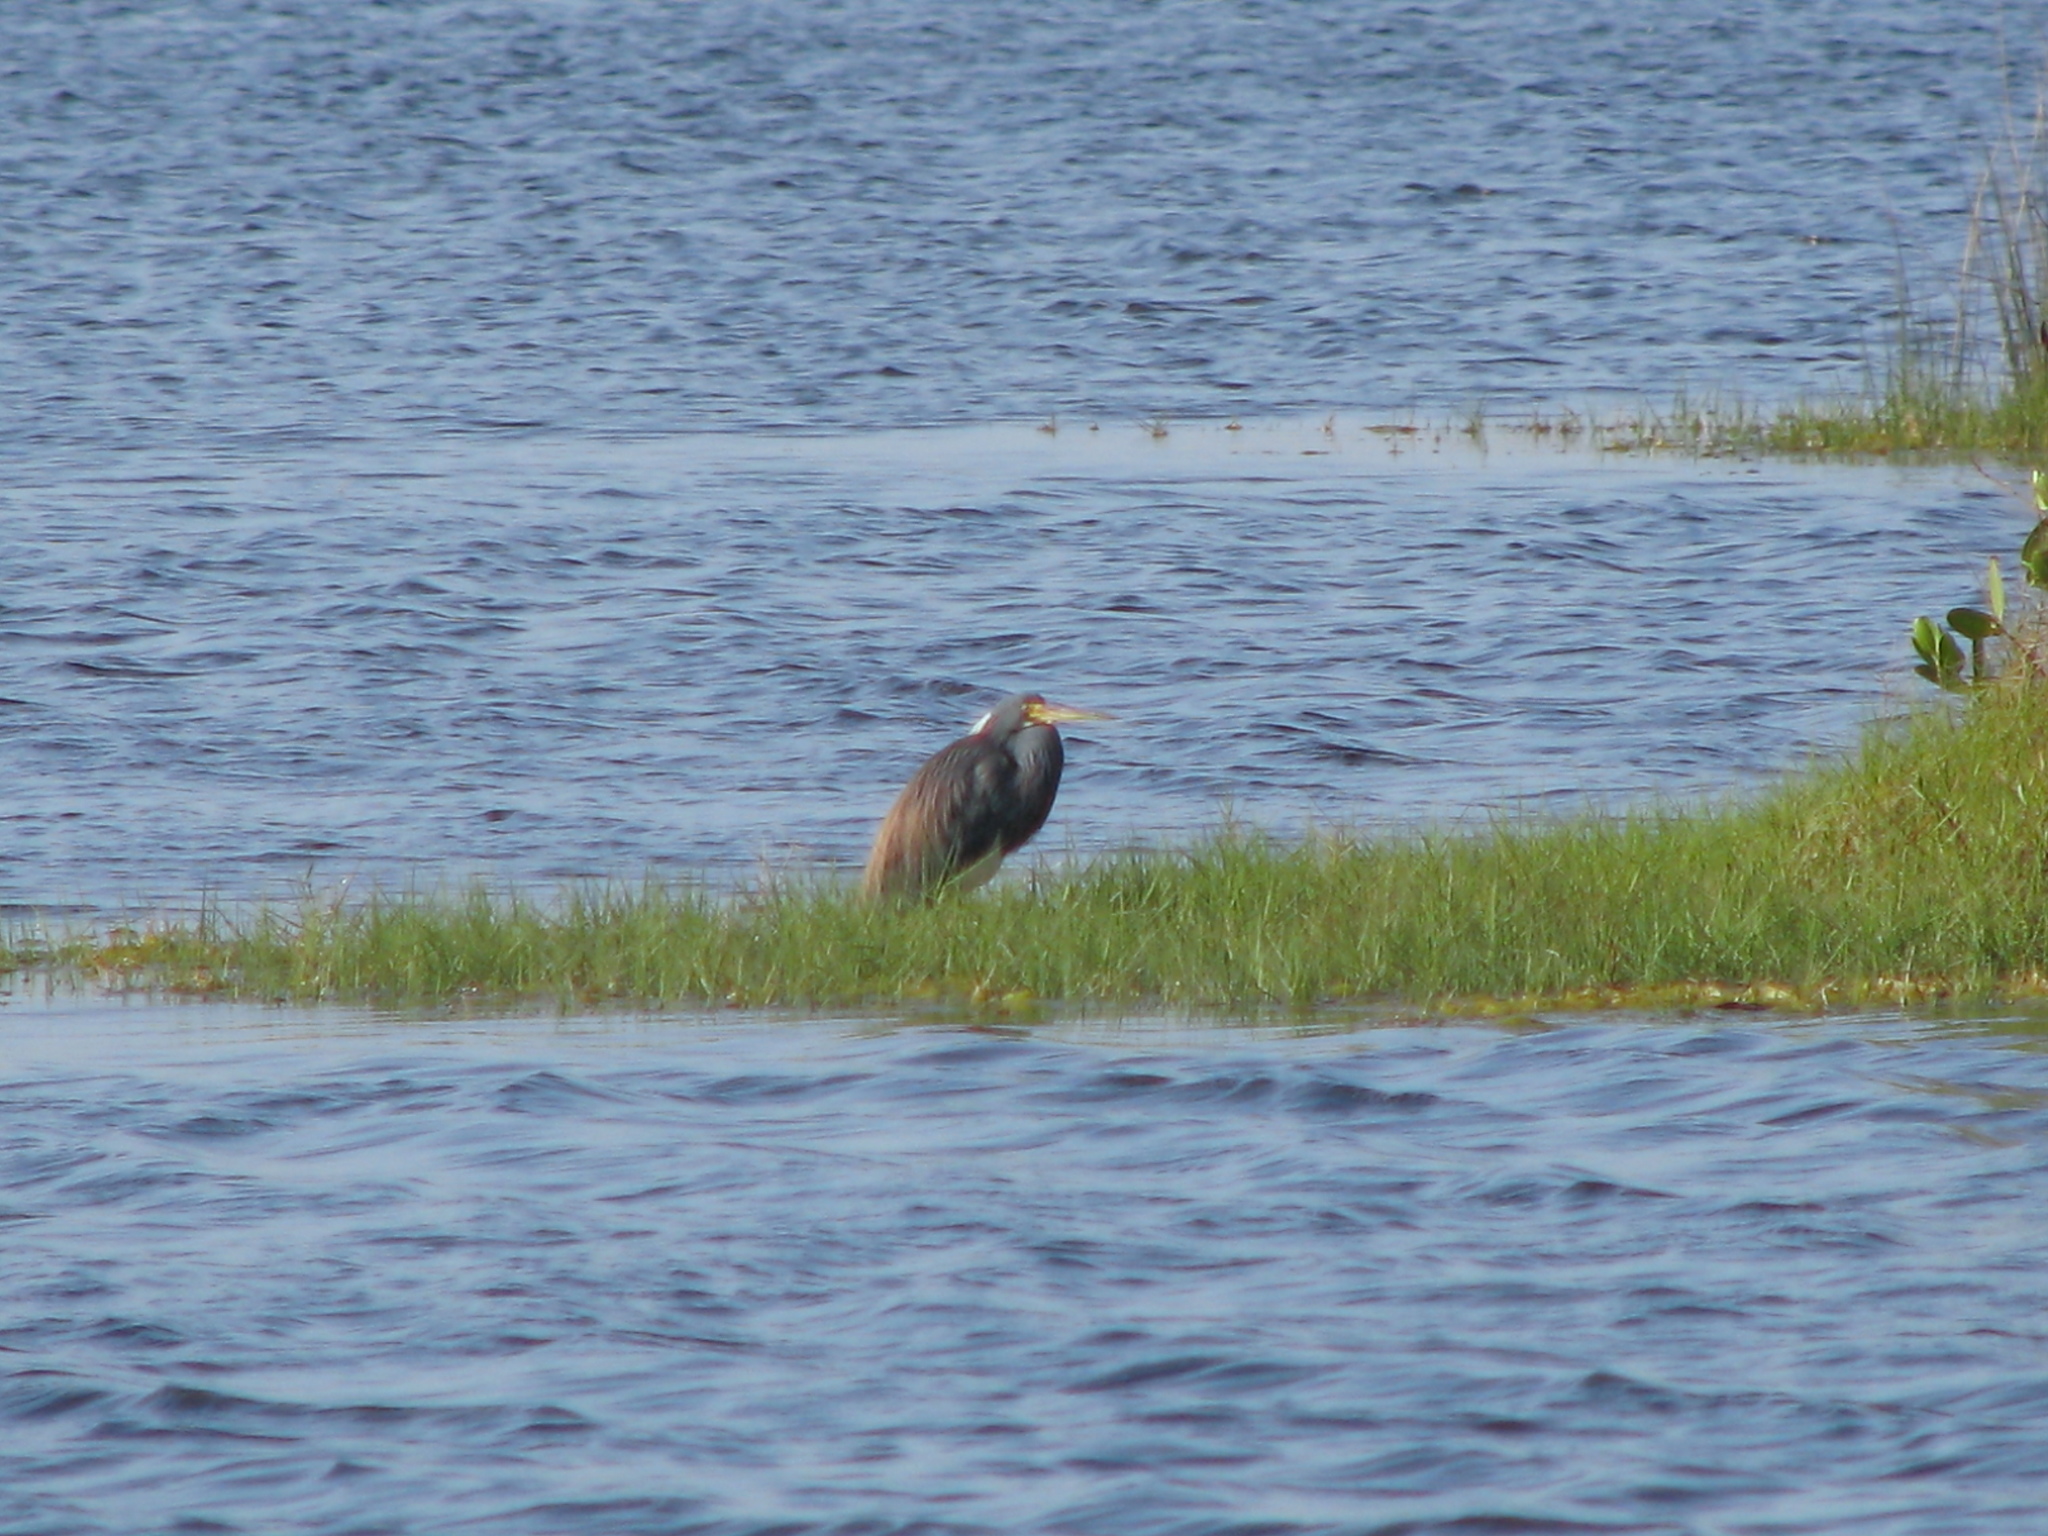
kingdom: Animalia
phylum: Chordata
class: Aves
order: Pelecaniformes
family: Ardeidae
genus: Egretta
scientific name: Egretta tricolor
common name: Tricolored heron
